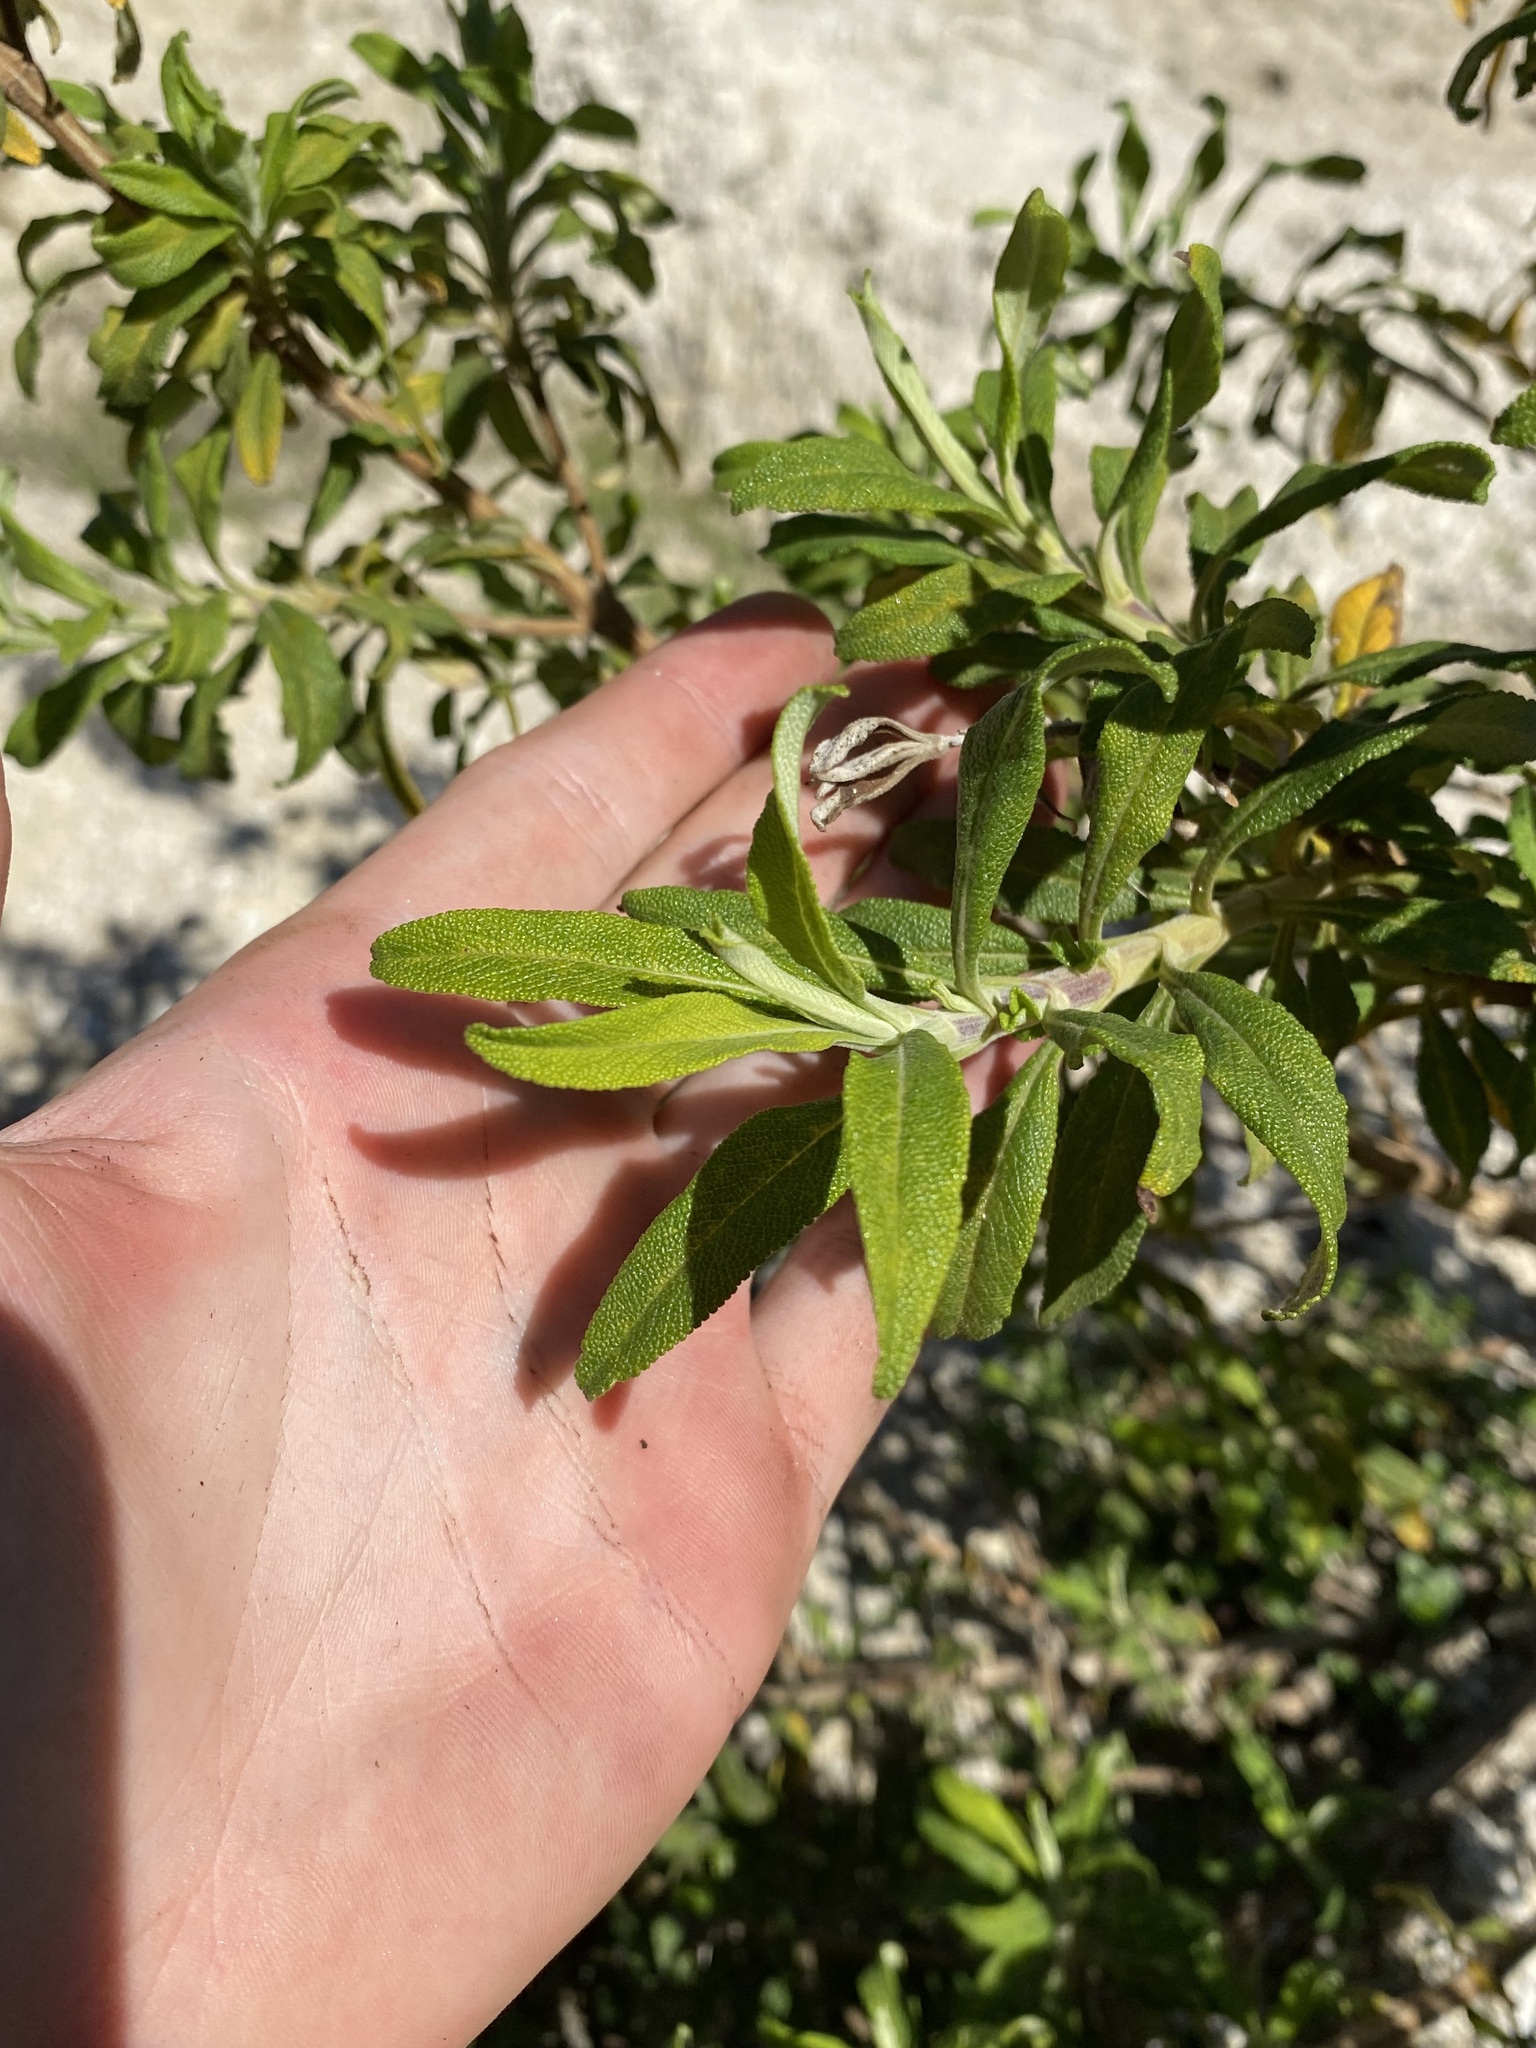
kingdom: Plantae
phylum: Tracheophyta
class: Magnoliopsida
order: Lamiales
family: Lamiaceae
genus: Salvia
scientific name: Salvia mellifera
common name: Black sage
